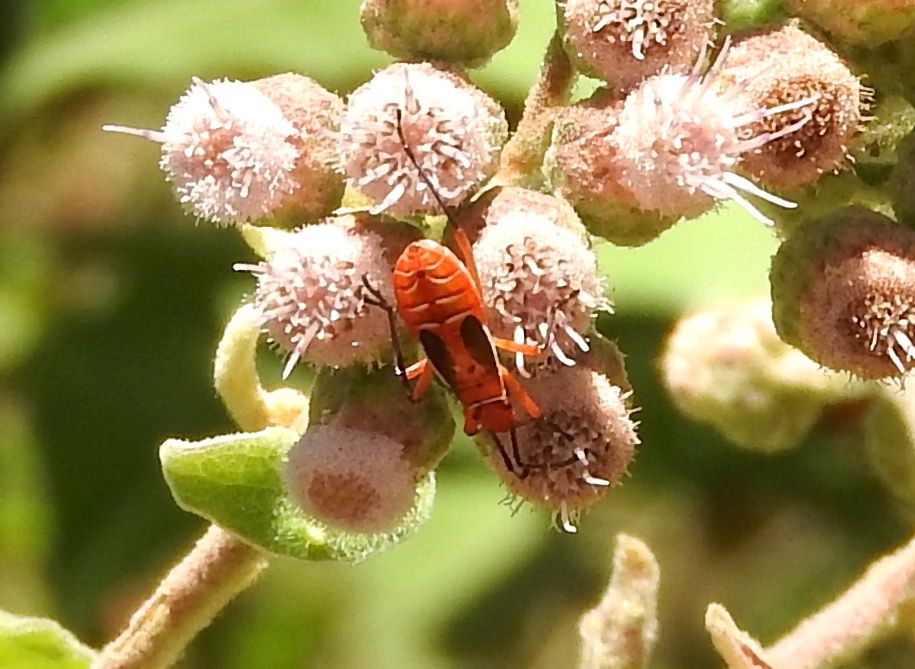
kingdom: Animalia
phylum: Arthropoda
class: Insecta
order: Hemiptera
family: Pyrrhocoridae
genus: Dysdercus
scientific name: Dysdercus
